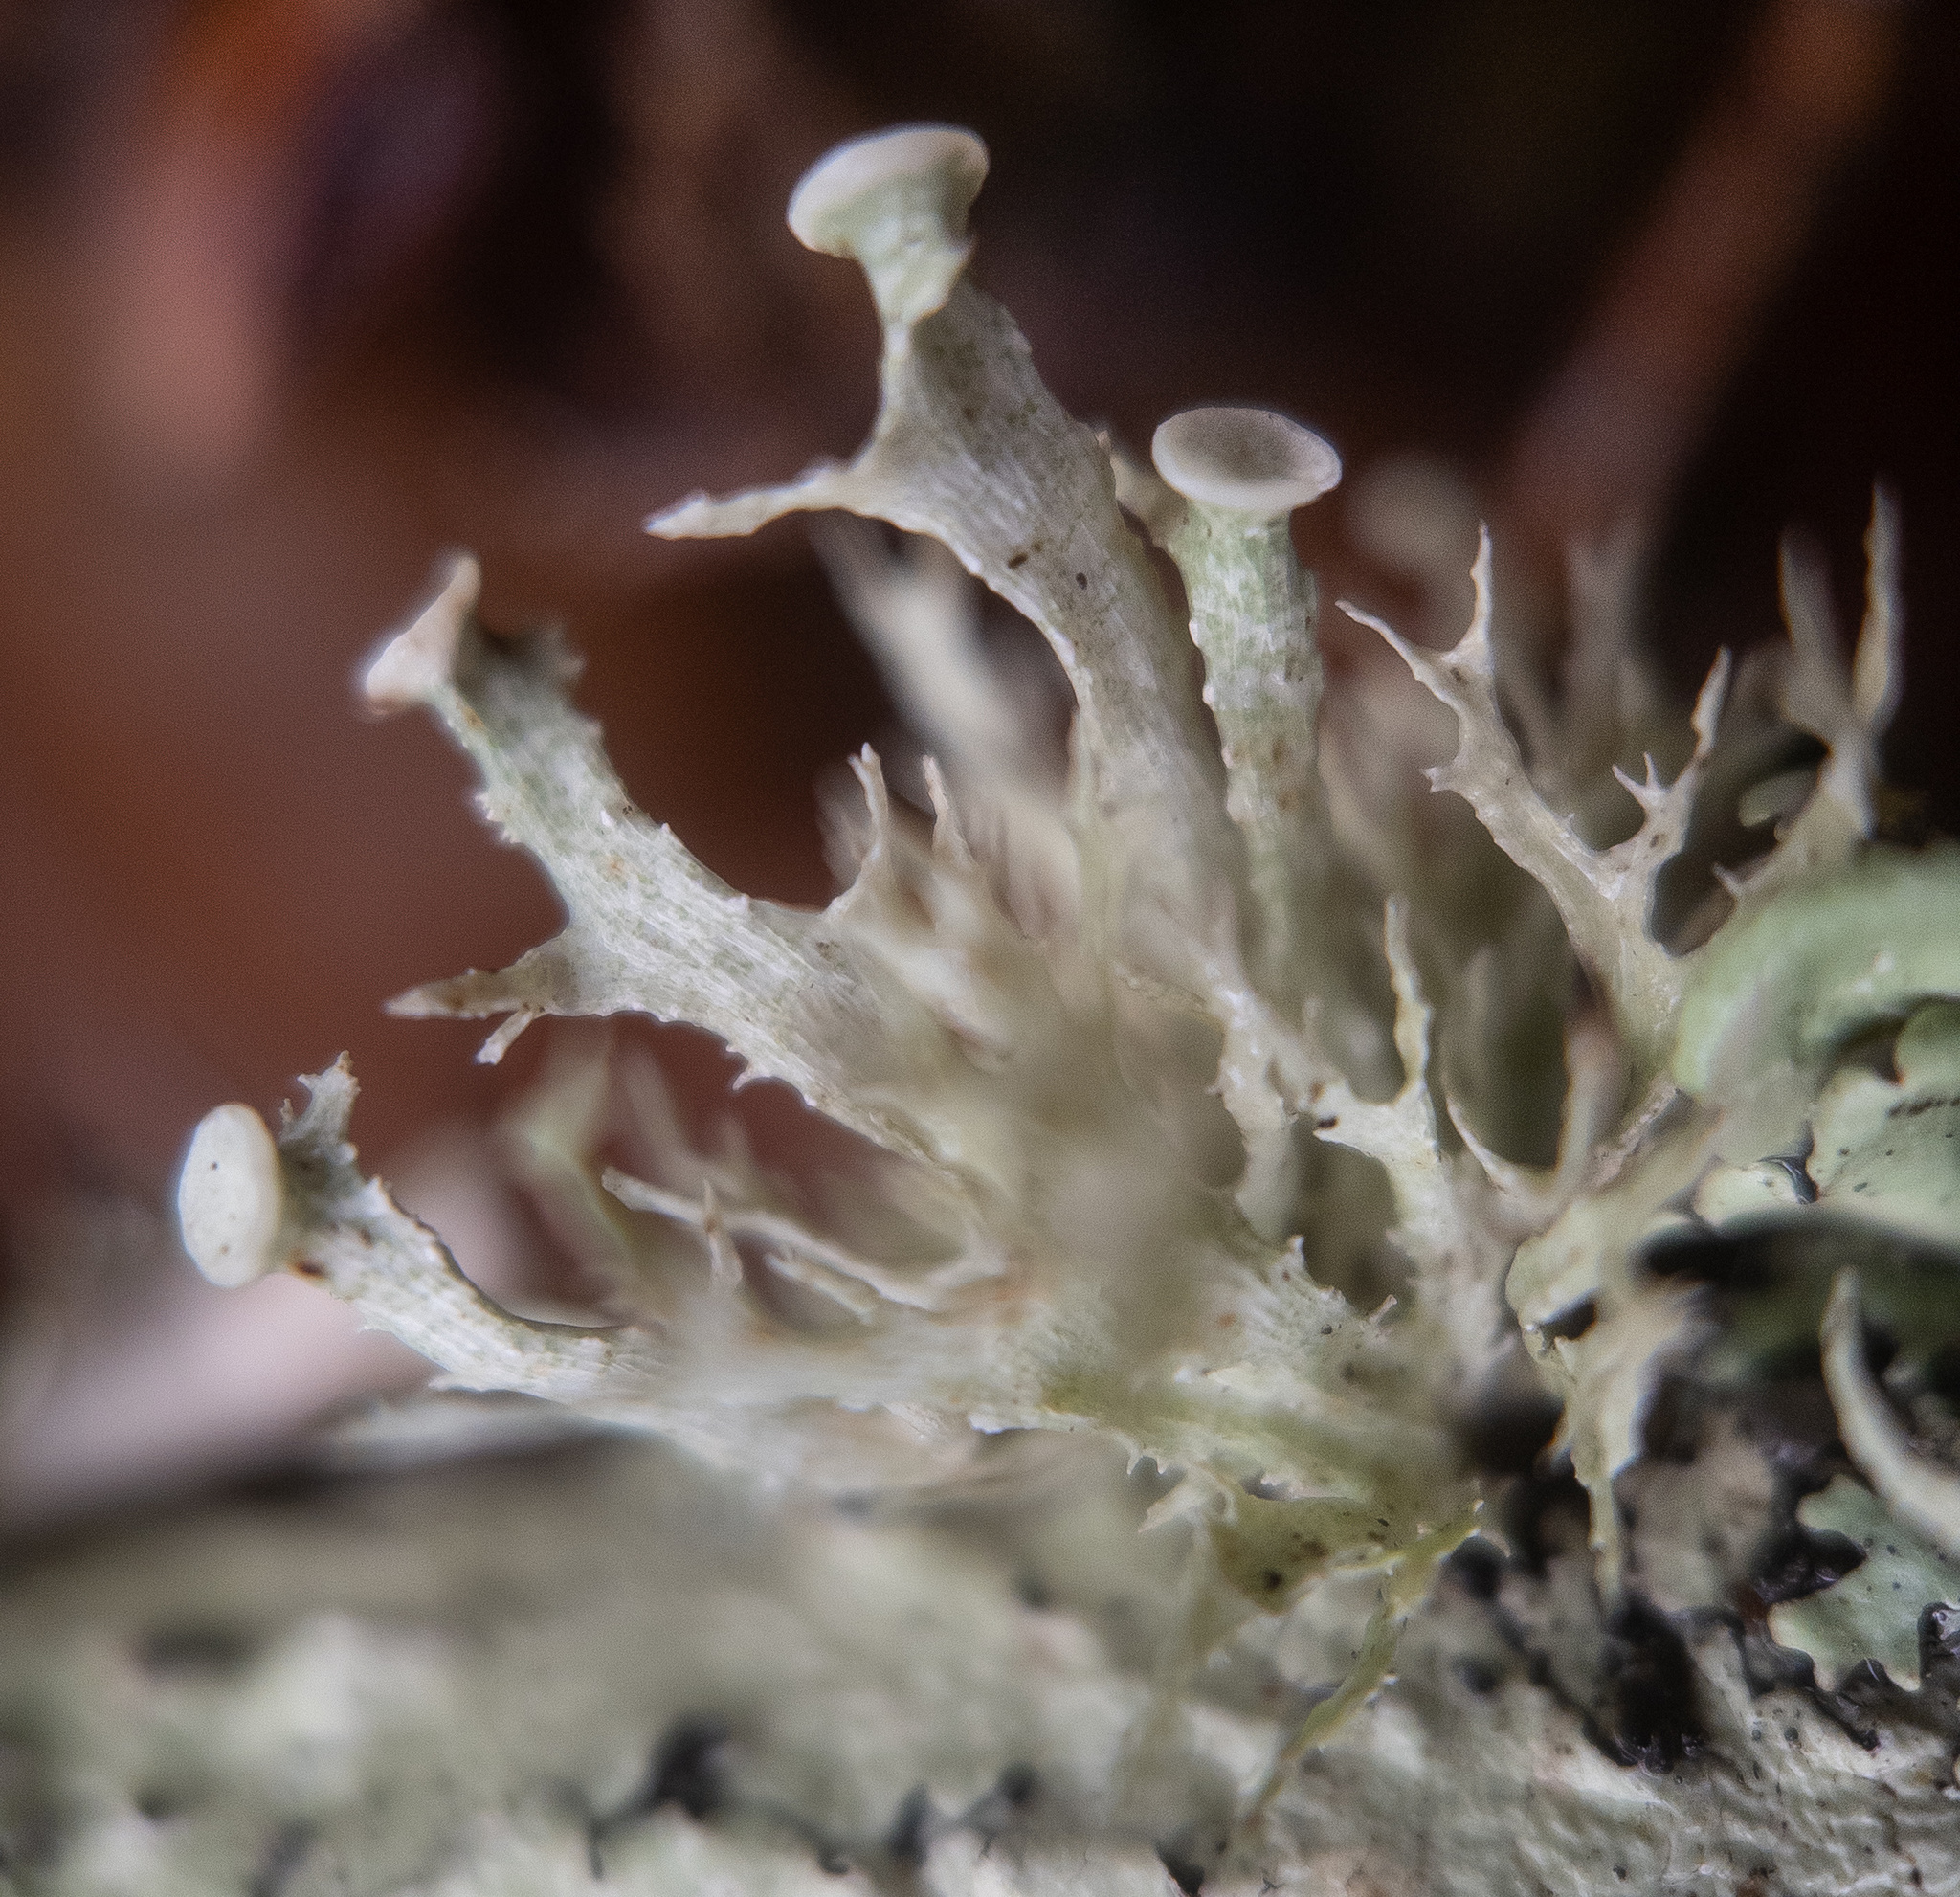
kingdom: Fungi
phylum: Ascomycota
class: Lecanoromycetes
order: Lecanorales
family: Ramalinaceae
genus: Ramalina
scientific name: Ramalina americana
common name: Sinewed bush lichen
